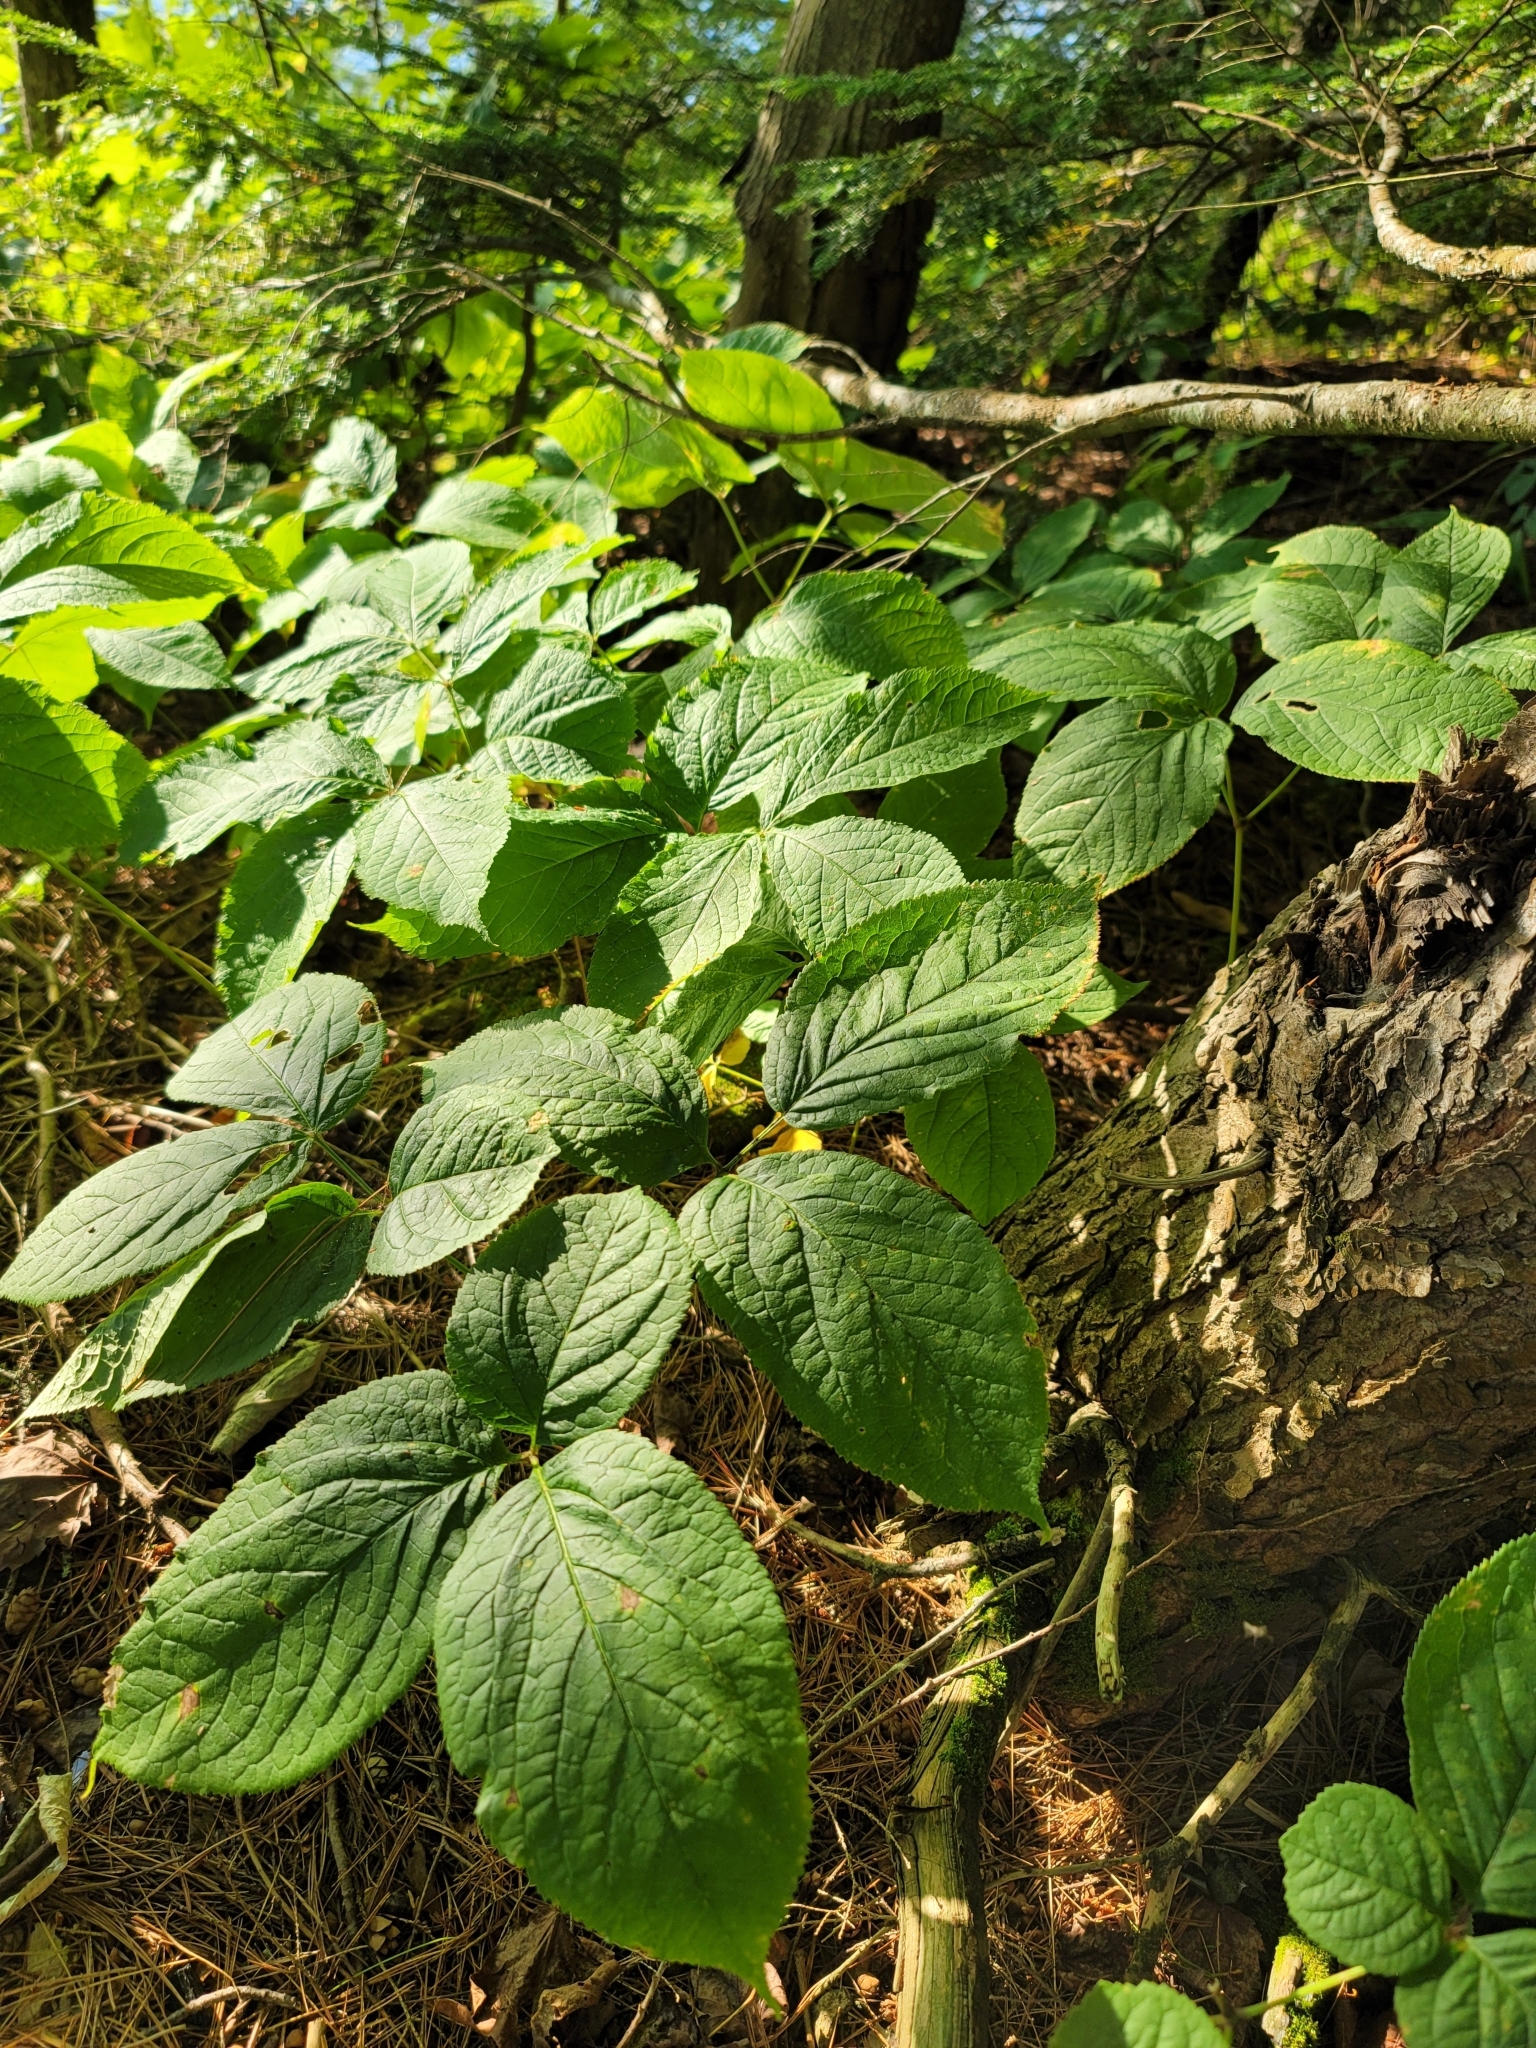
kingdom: Plantae
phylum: Tracheophyta
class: Magnoliopsida
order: Apiales
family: Araliaceae
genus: Aralia
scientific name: Aralia nudicaulis
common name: Wild sarsaparilla
